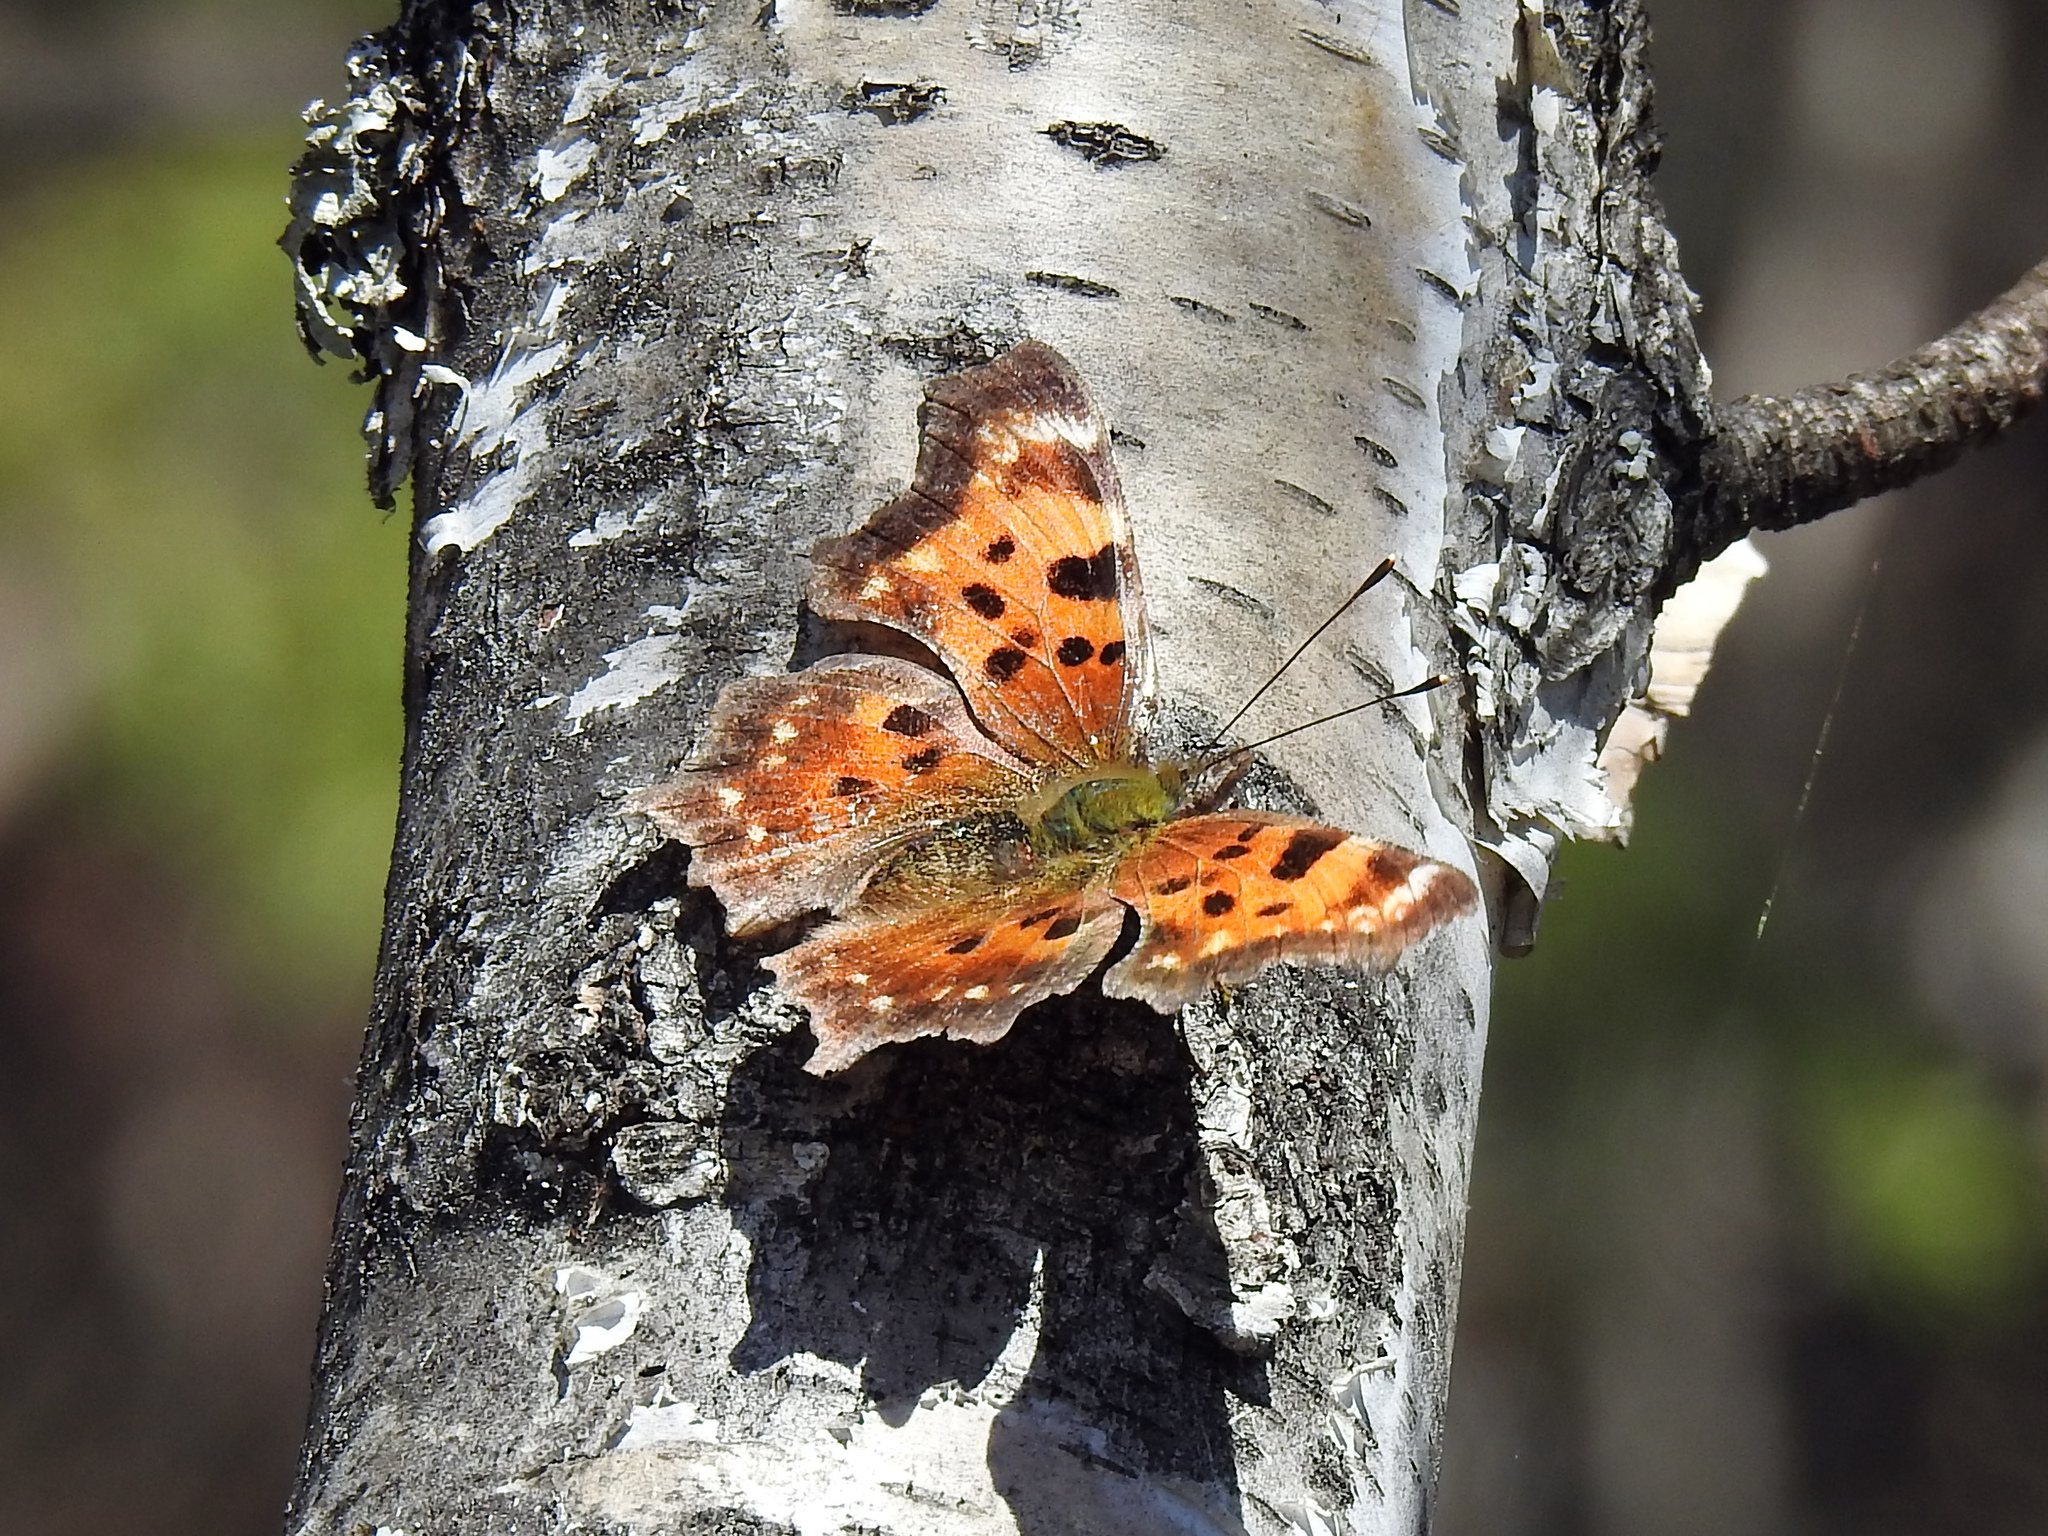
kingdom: Animalia
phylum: Arthropoda
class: Insecta
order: Lepidoptera
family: Nymphalidae
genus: Polygonia
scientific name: Polygonia faunus
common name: Green comma
